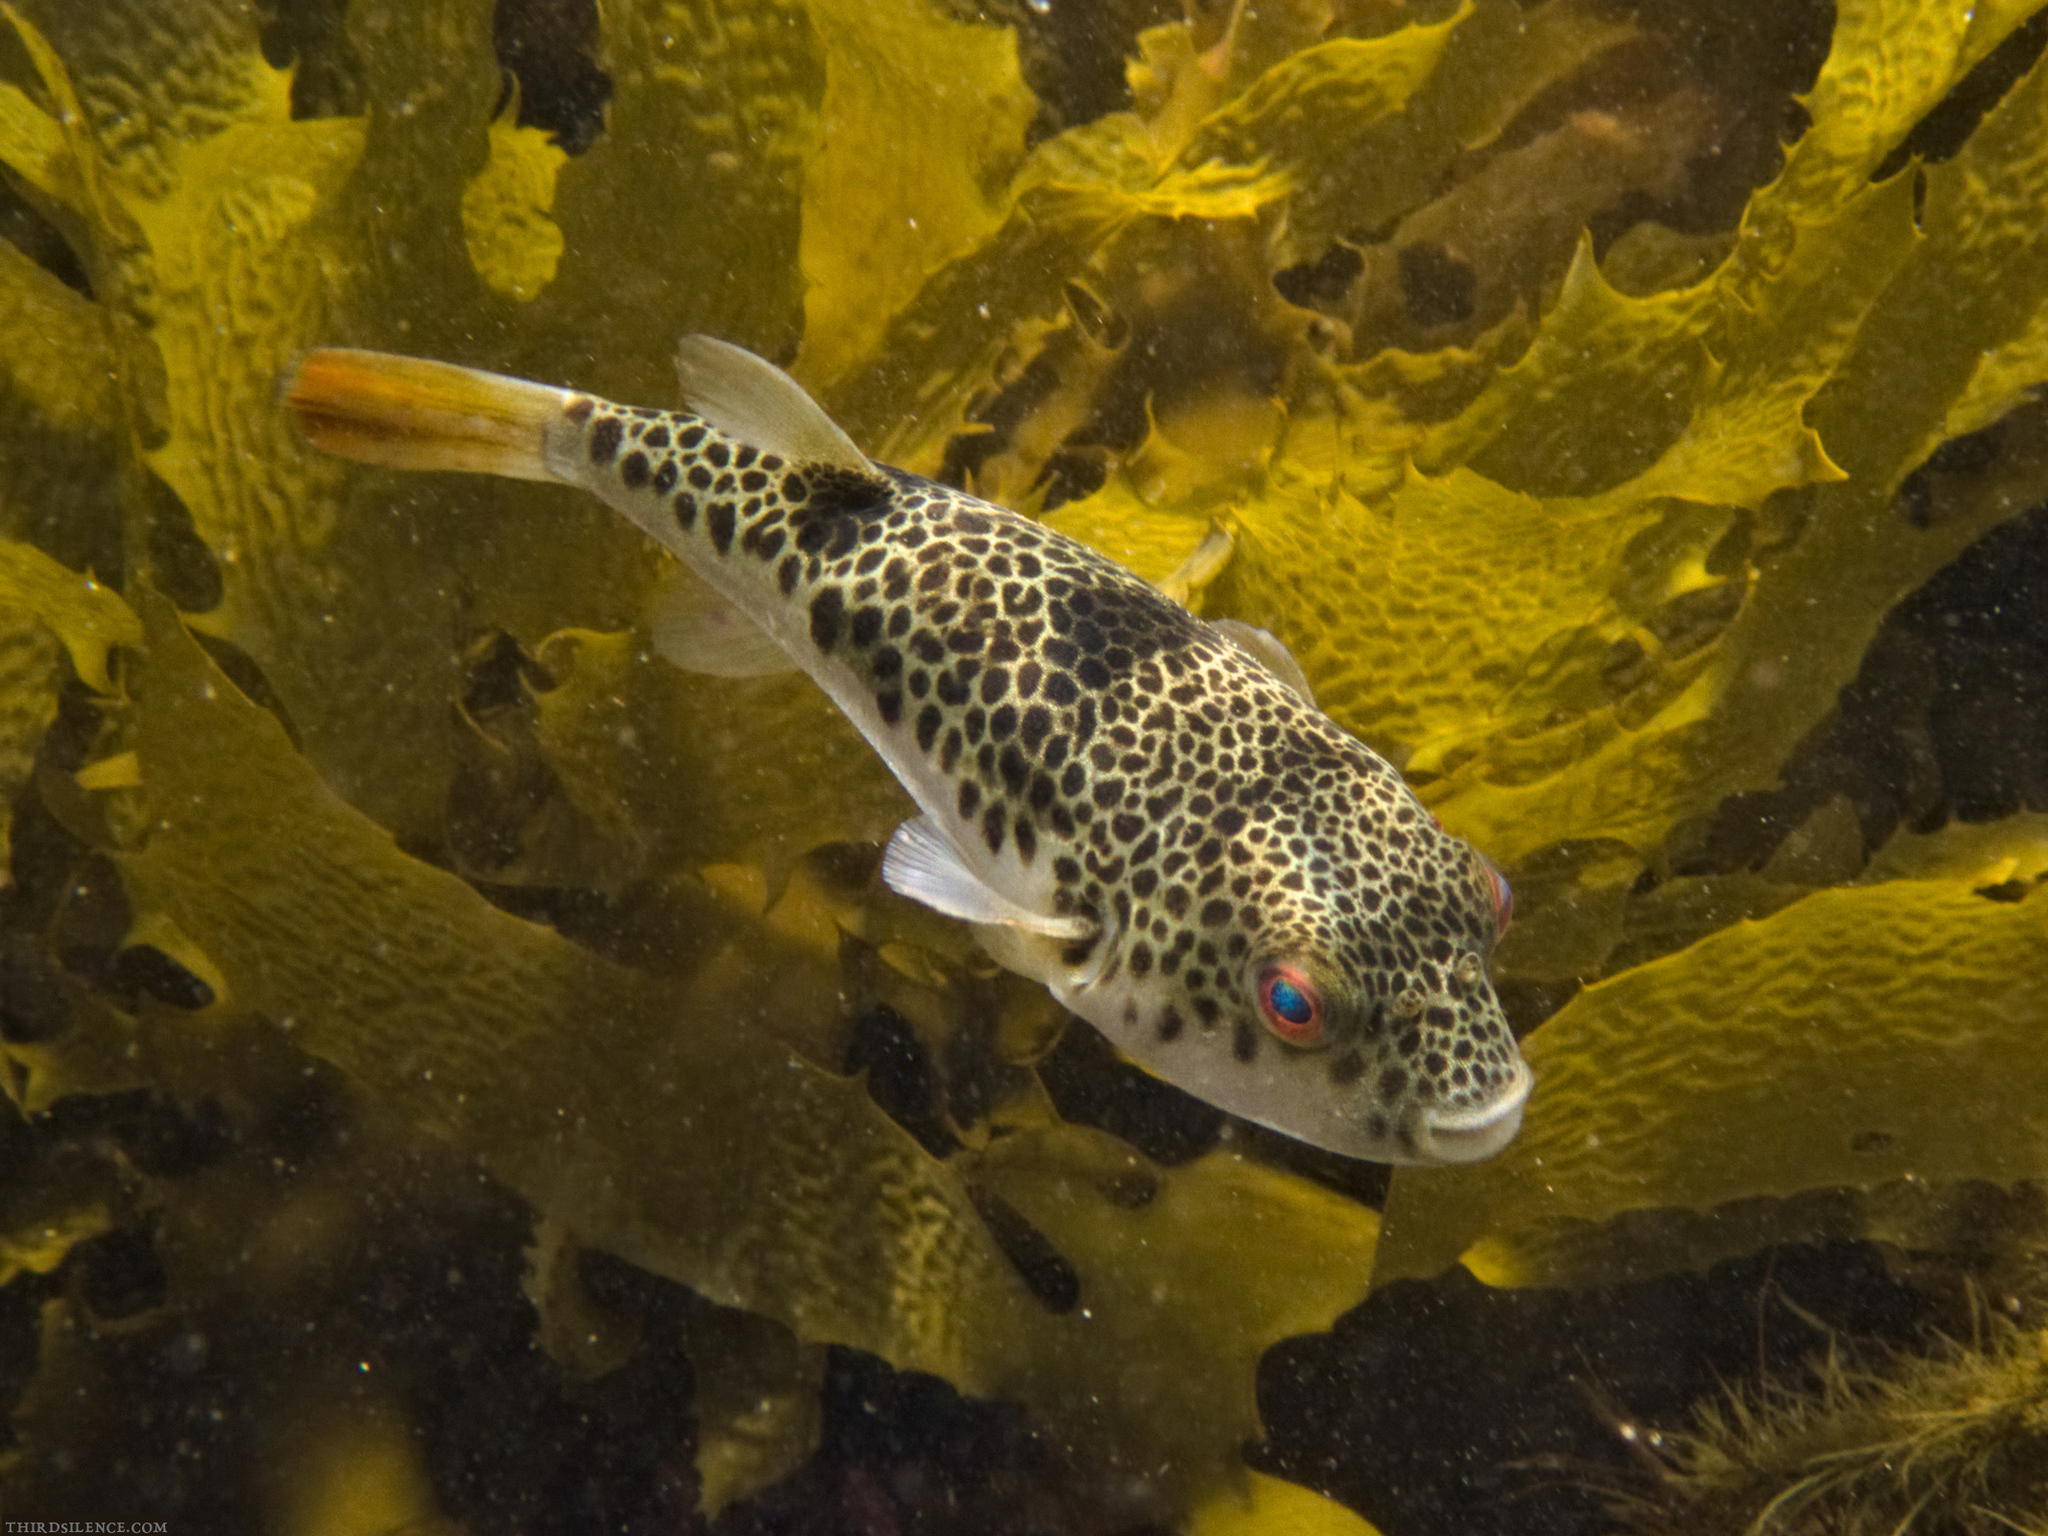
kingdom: Animalia
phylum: Chordata
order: Tetraodontiformes
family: Tetraodontidae
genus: Tetractenos
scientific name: Tetractenos glaber
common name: Smooth toadfish
